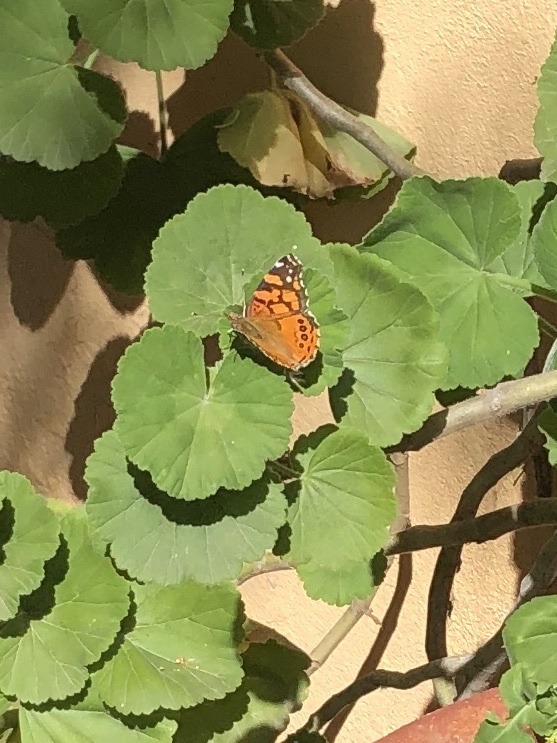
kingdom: Animalia
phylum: Arthropoda
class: Insecta
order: Lepidoptera
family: Nymphalidae
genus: Vanessa
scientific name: Vanessa annabella
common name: West coast lady
